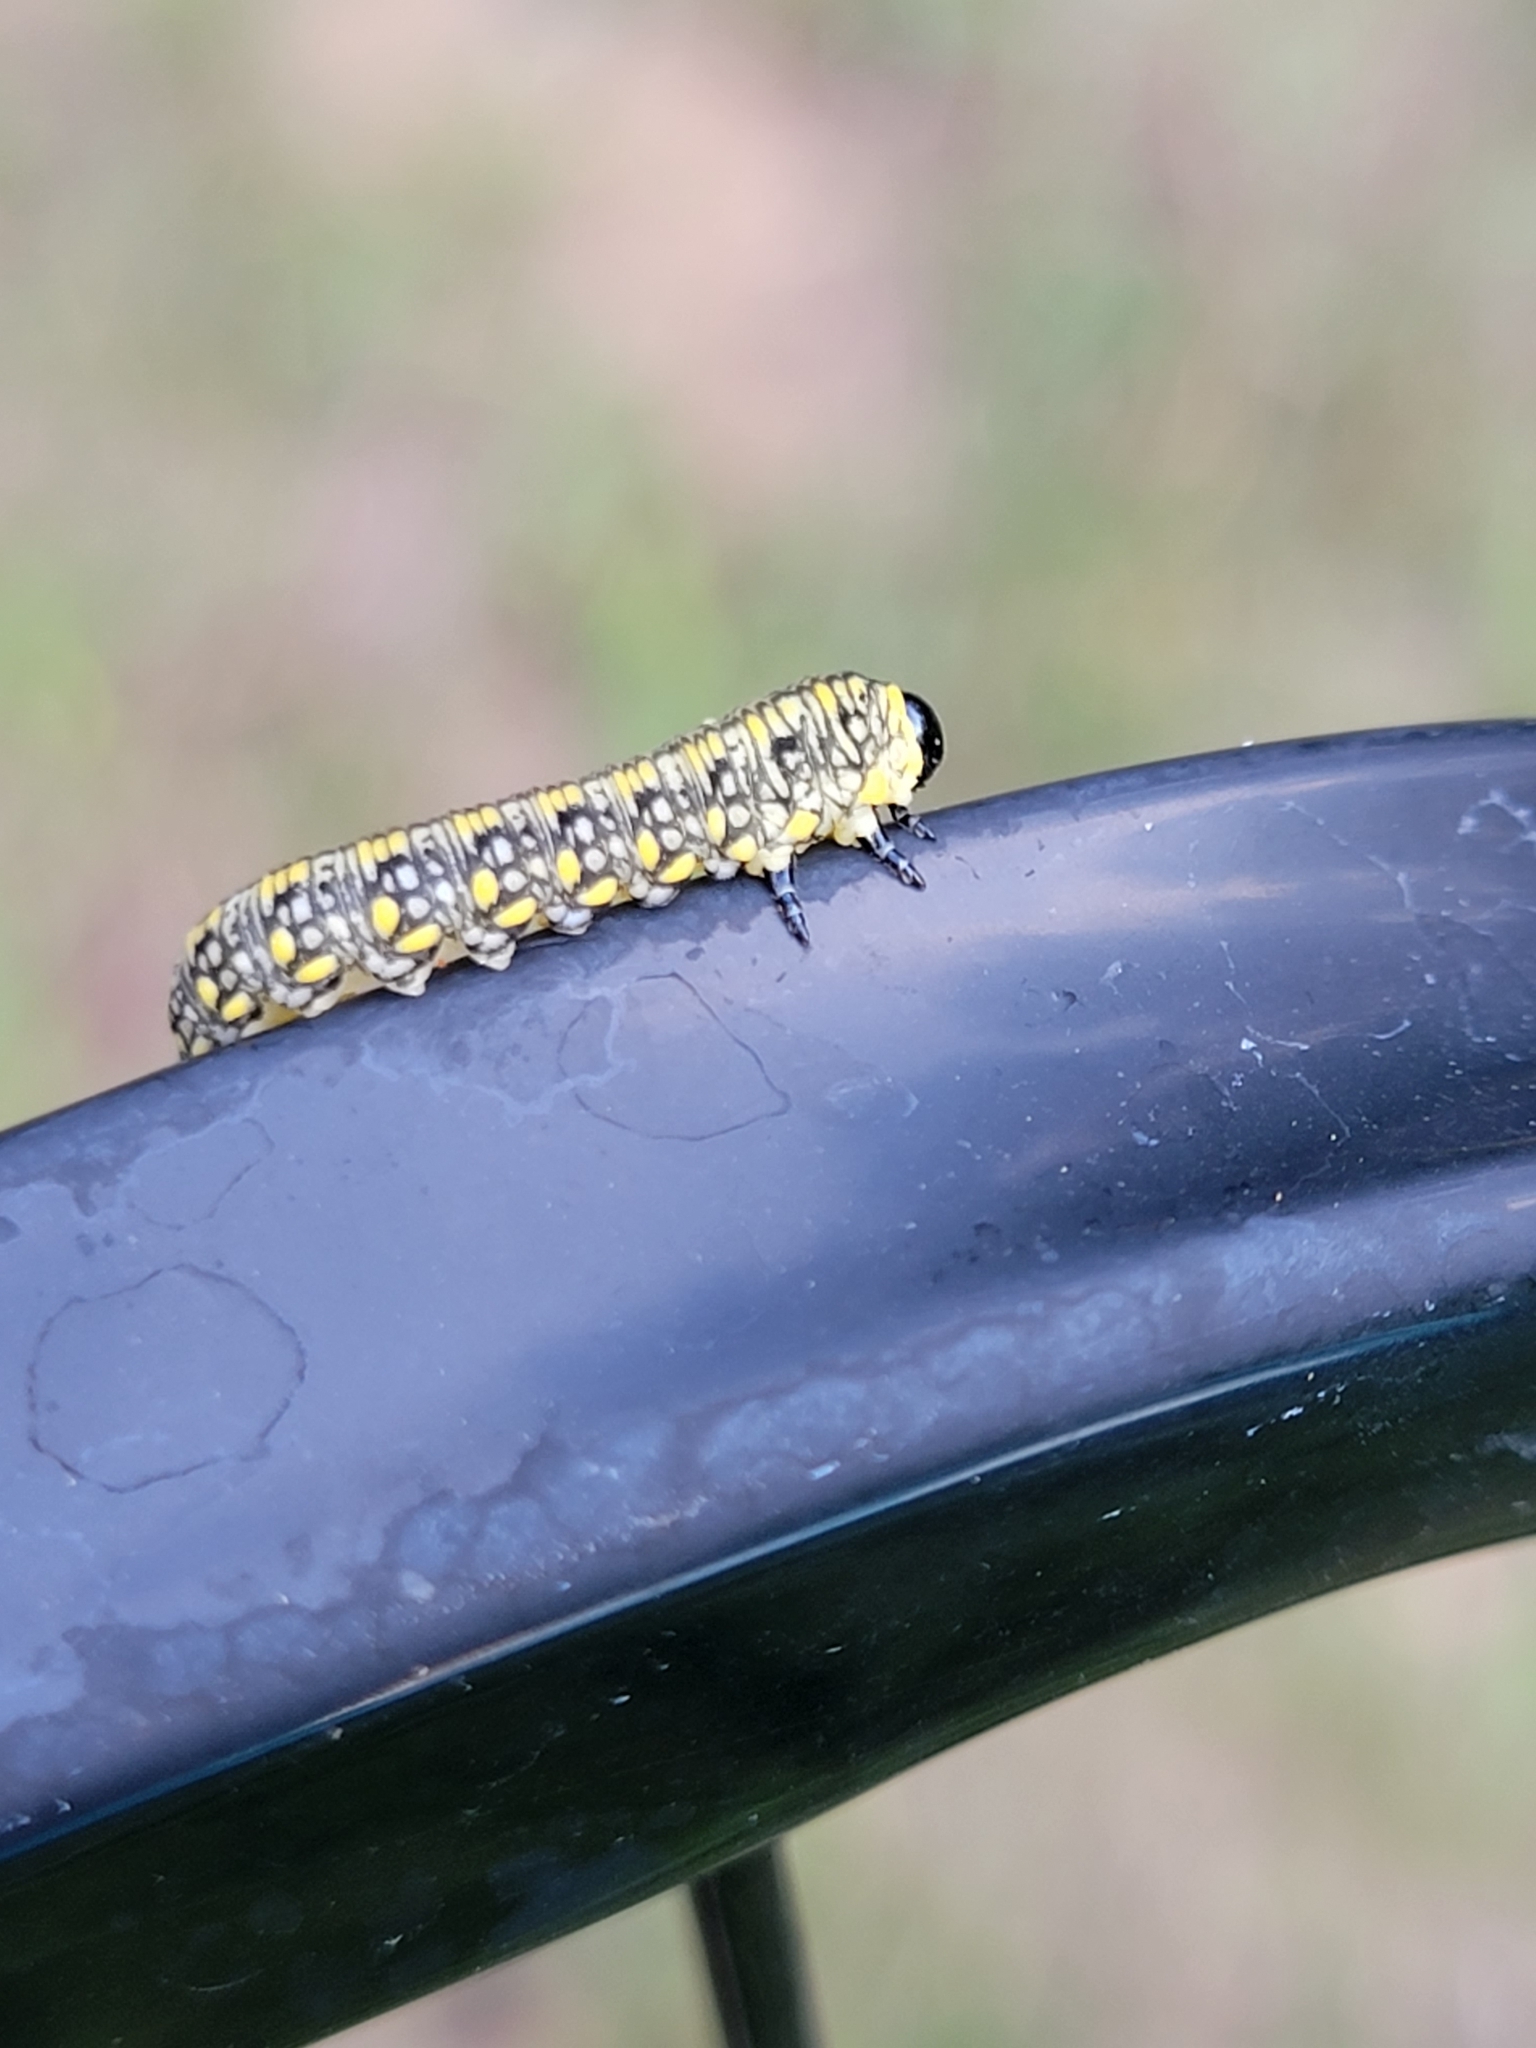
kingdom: Animalia
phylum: Arthropoda
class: Insecta
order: Hymenoptera
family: Diprionidae
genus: Diprion
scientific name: Diprion similis
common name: Pine sawfly
